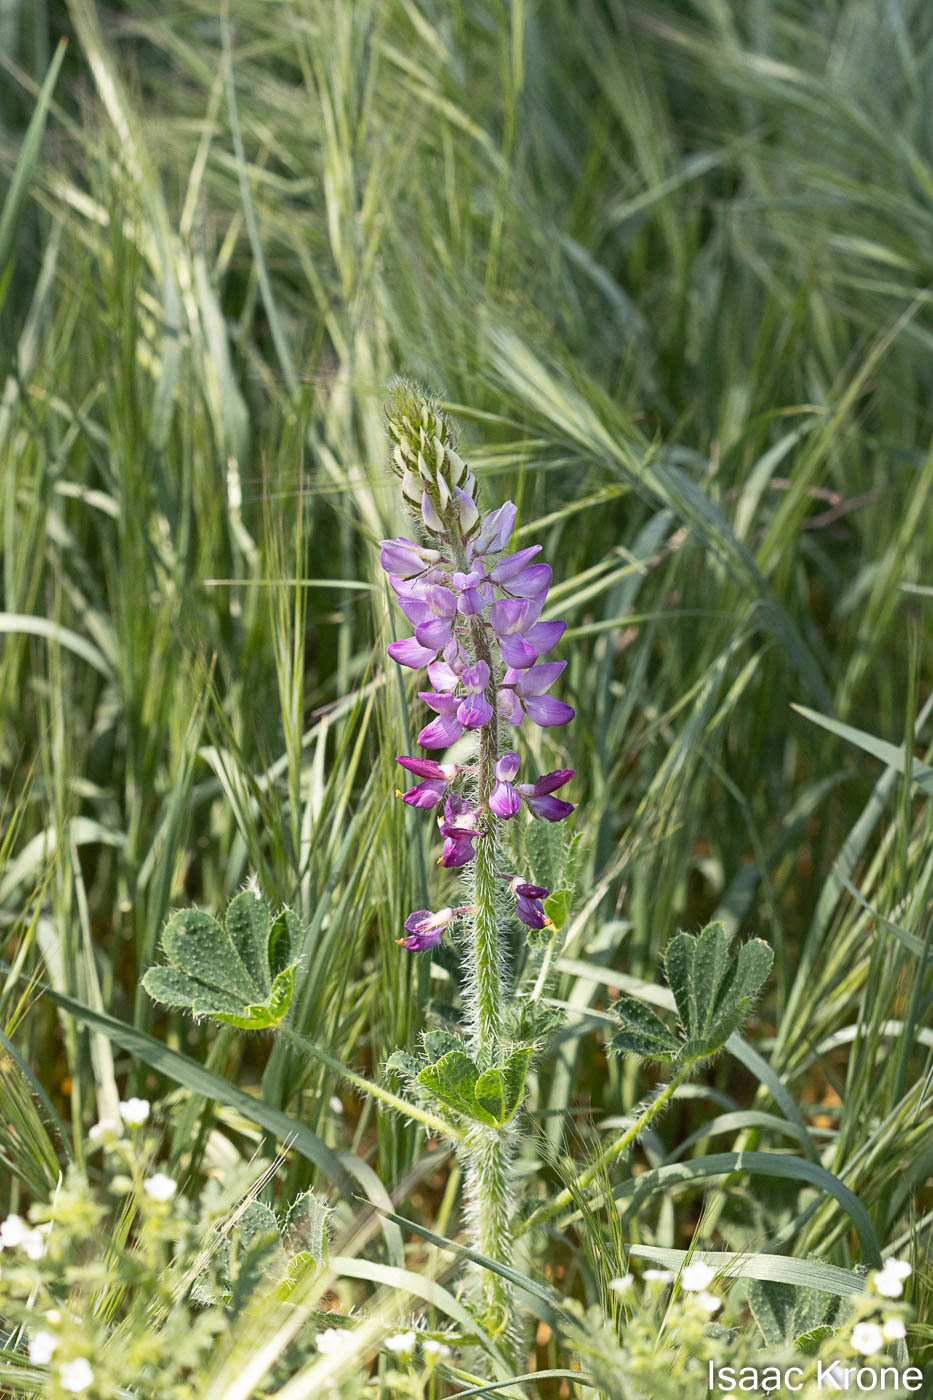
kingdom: Plantae
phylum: Tracheophyta
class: Magnoliopsida
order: Fabales
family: Fabaceae
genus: Lupinus
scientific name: Lupinus hirsutissimus
